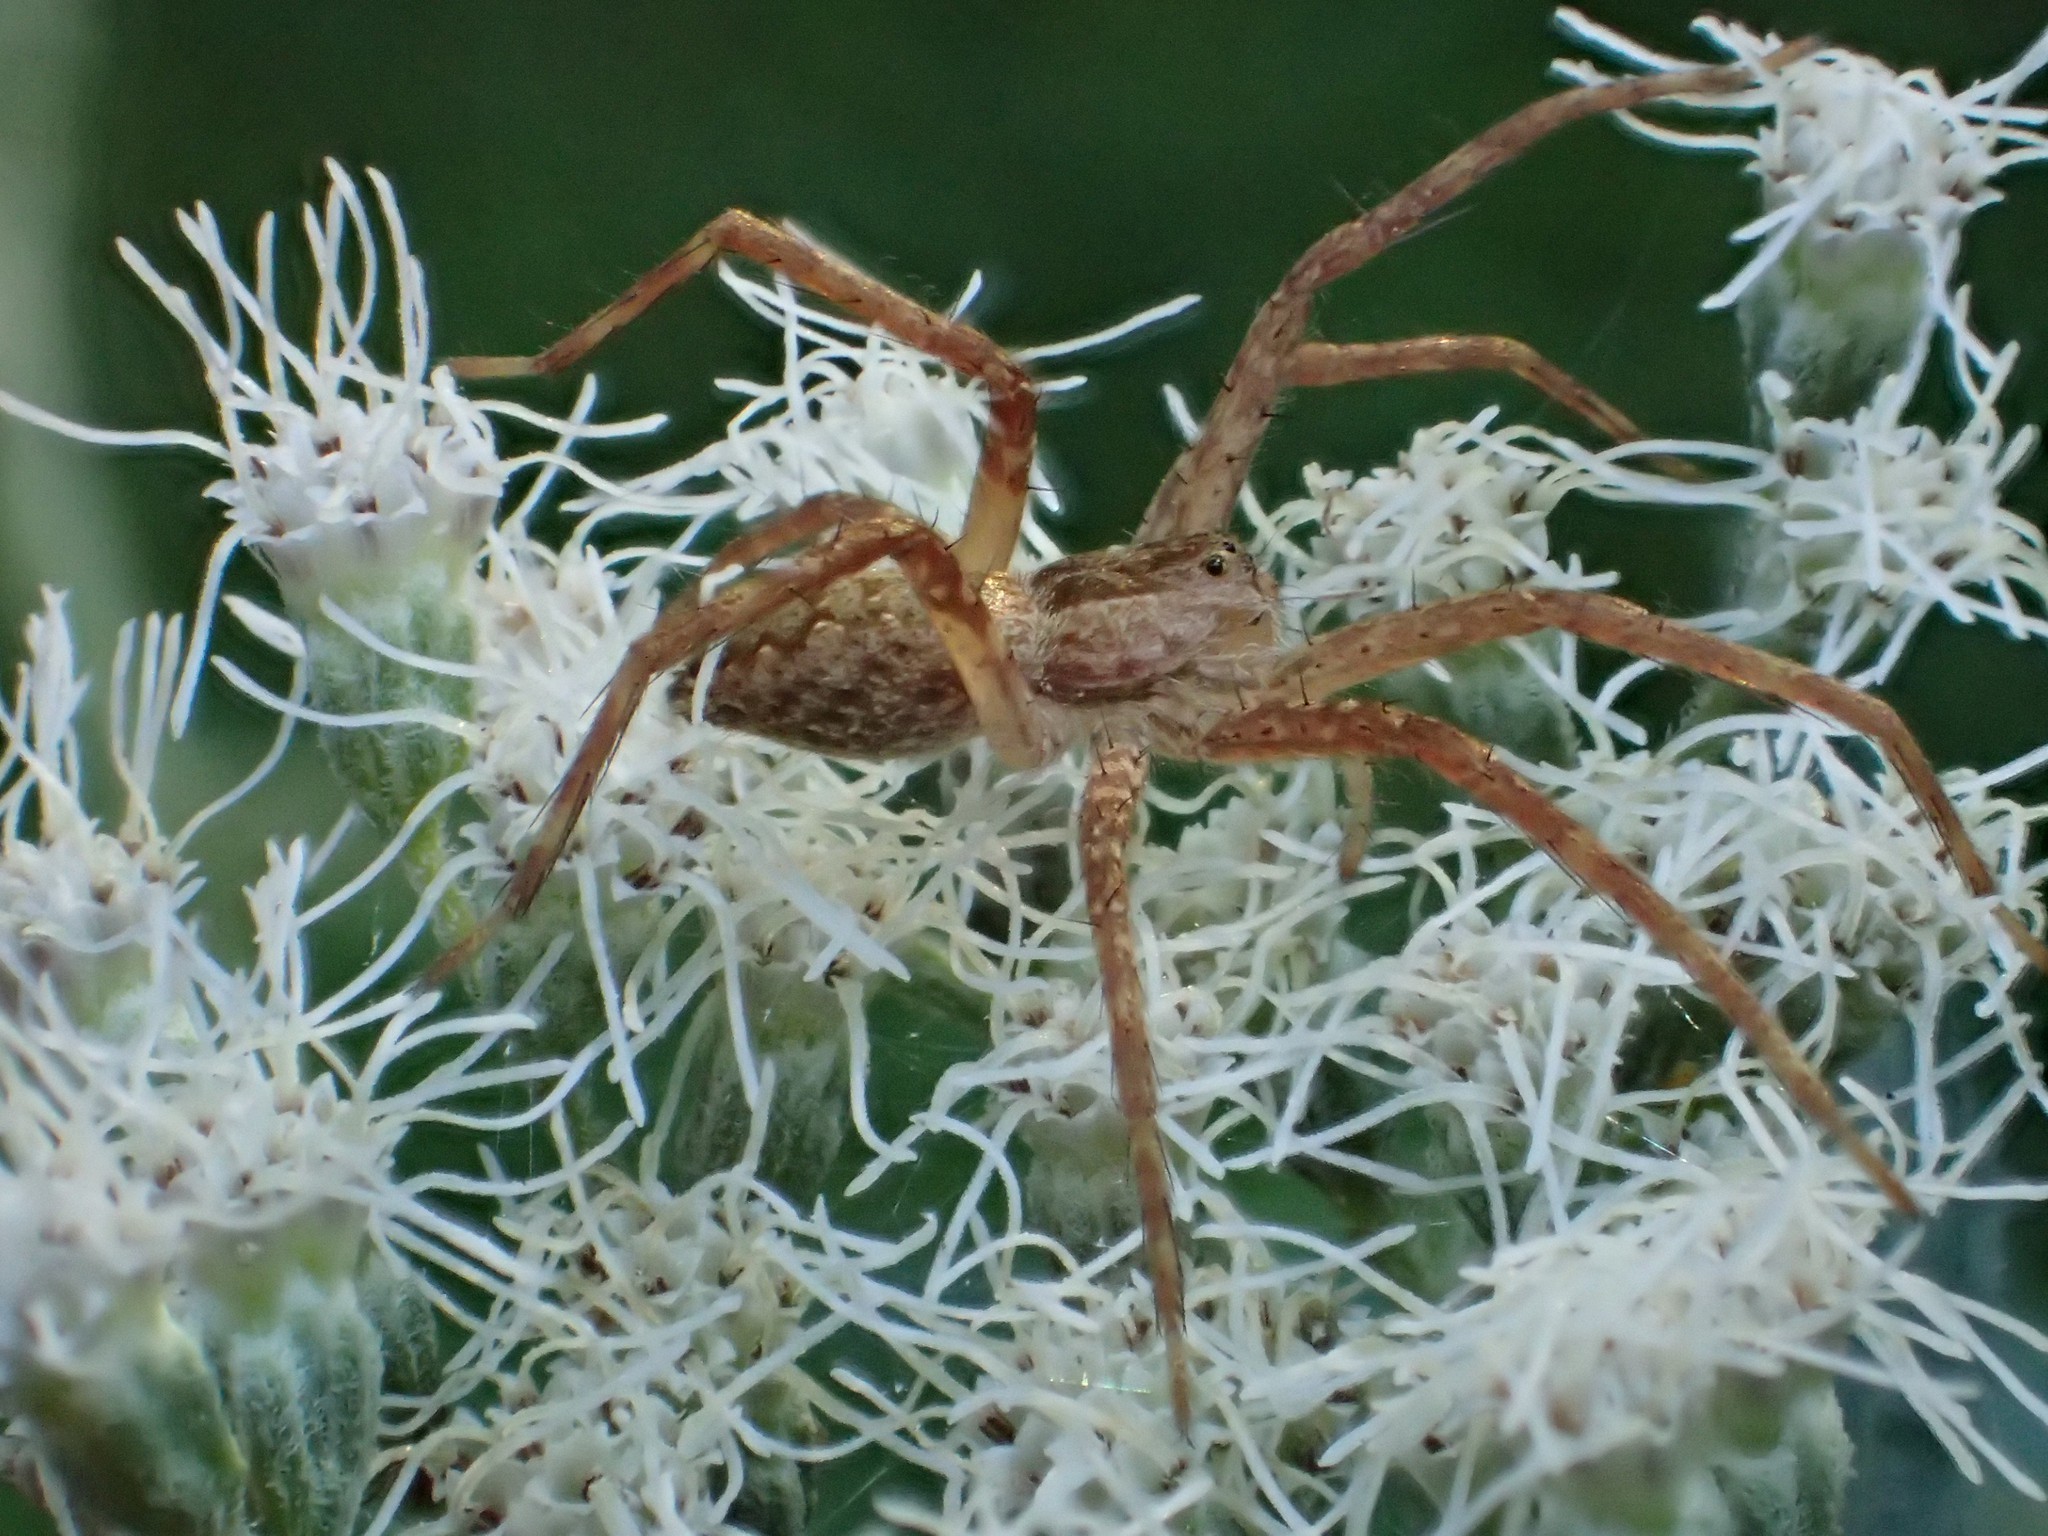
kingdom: Animalia
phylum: Arthropoda
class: Arachnida
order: Araneae
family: Pisauridae
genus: Pisaurina
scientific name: Pisaurina mira
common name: American nursery web spider
